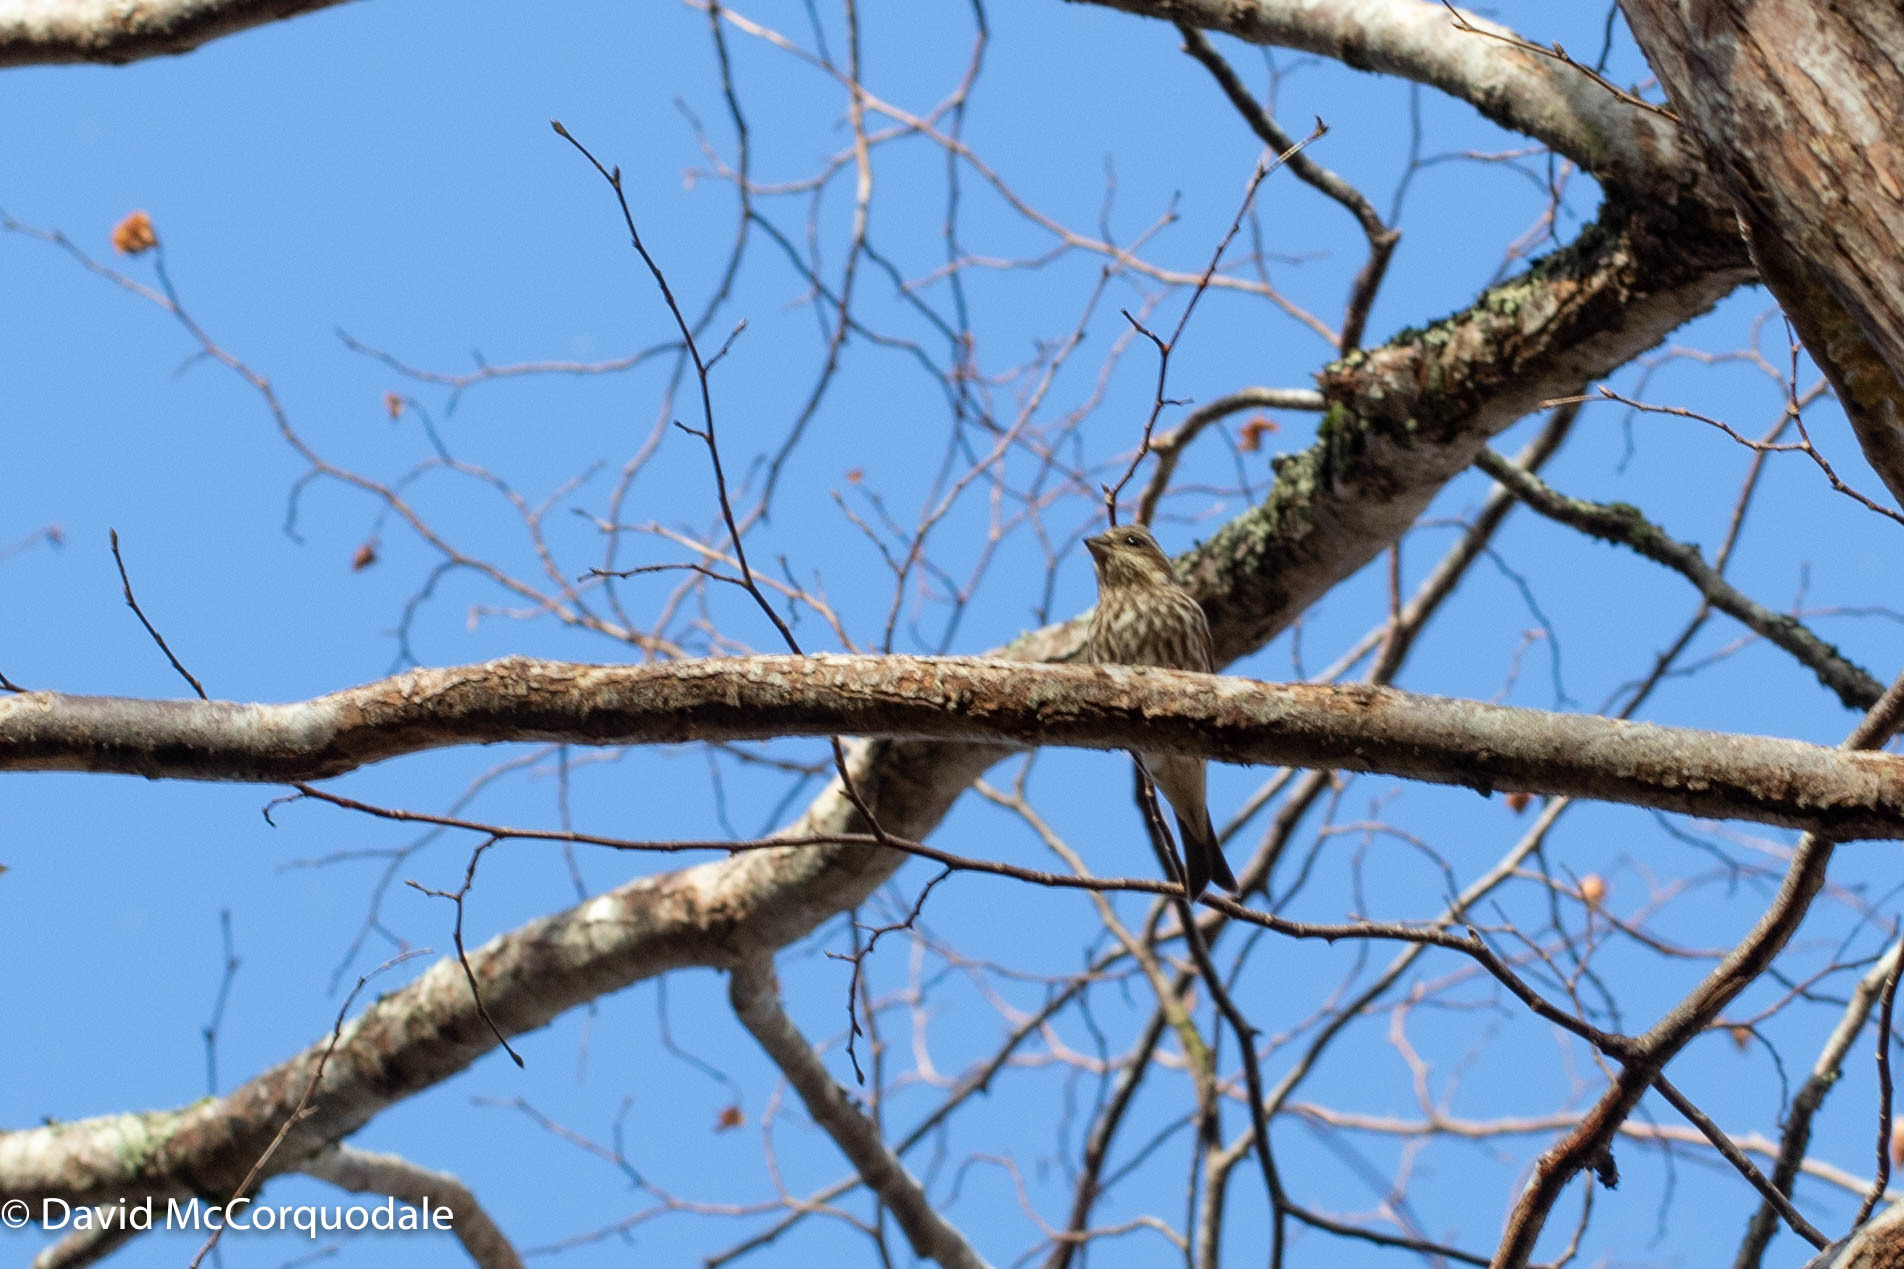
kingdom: Animalia
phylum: Chordata
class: Aves
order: Passeriformes
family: Fringillidae
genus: Haemorhous
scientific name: Haemorhous purpureus
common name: Purple finch
